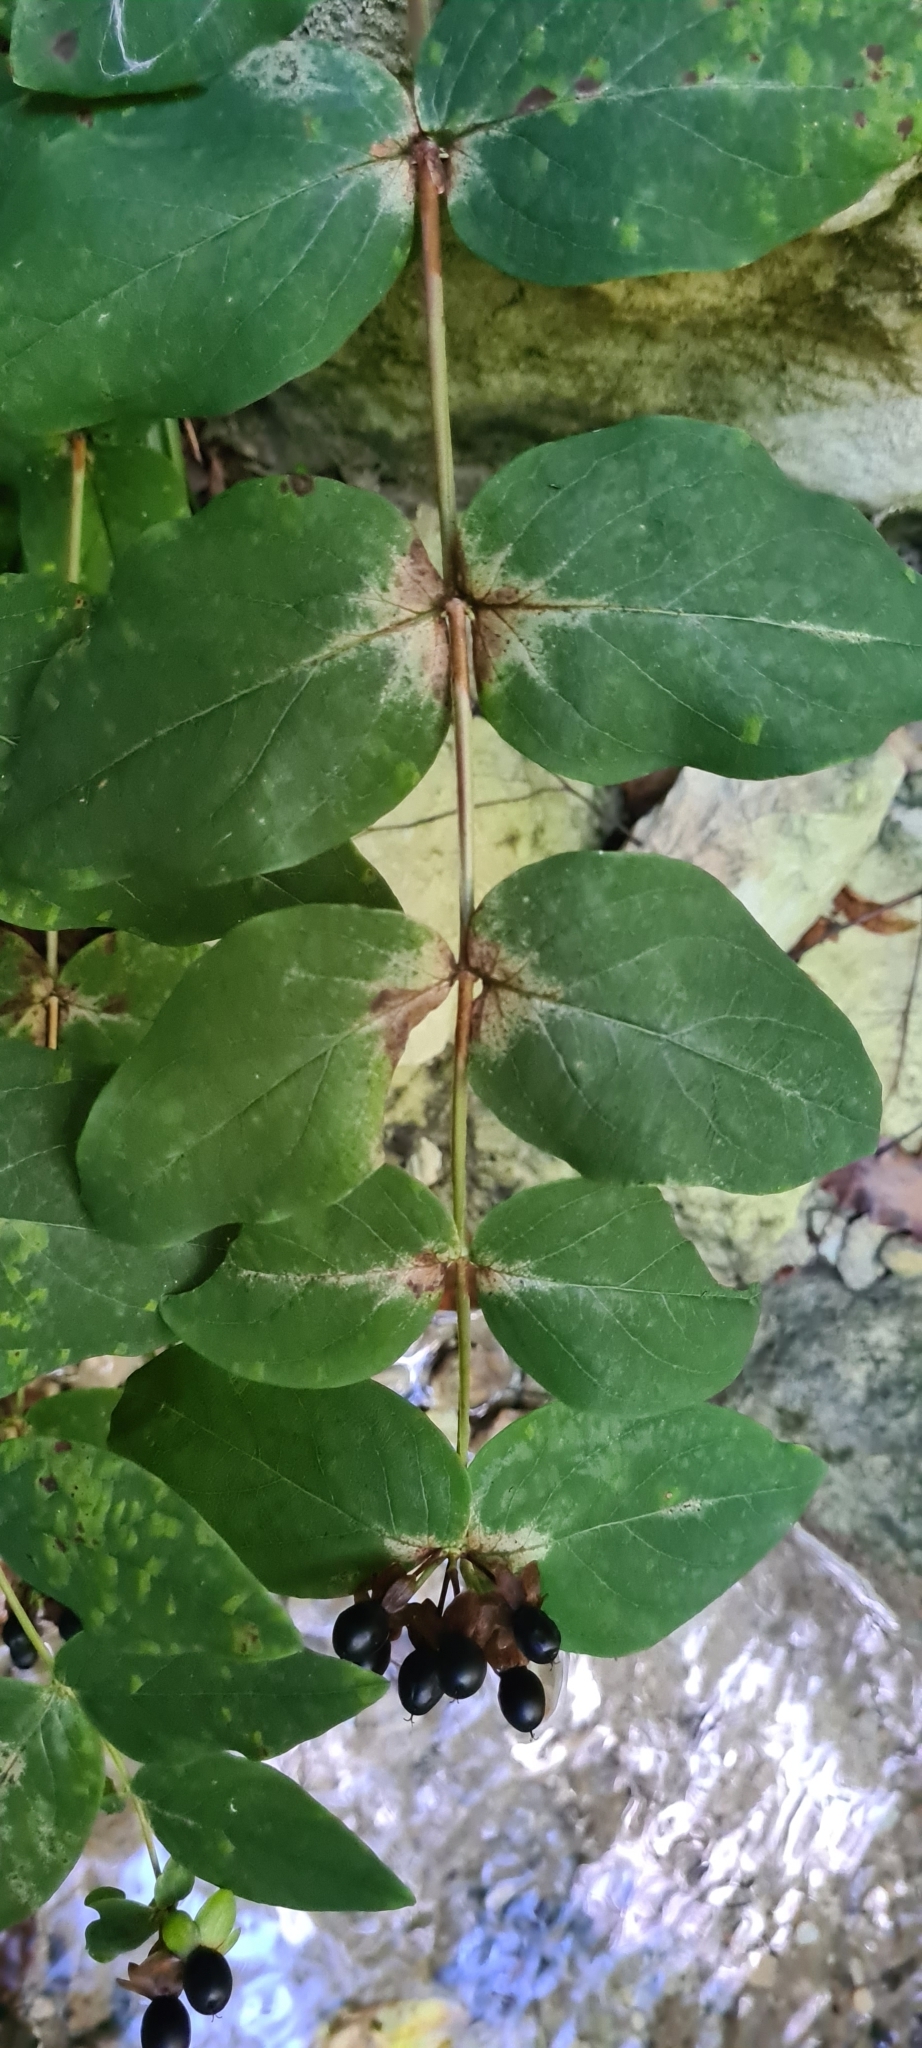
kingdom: Plantae
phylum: Tracheophyta
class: Magnoliopsida
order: Malpighiales
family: Hypericaceae
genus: Hypericum
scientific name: Hypericum androsaemum
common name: Sweet-amber
